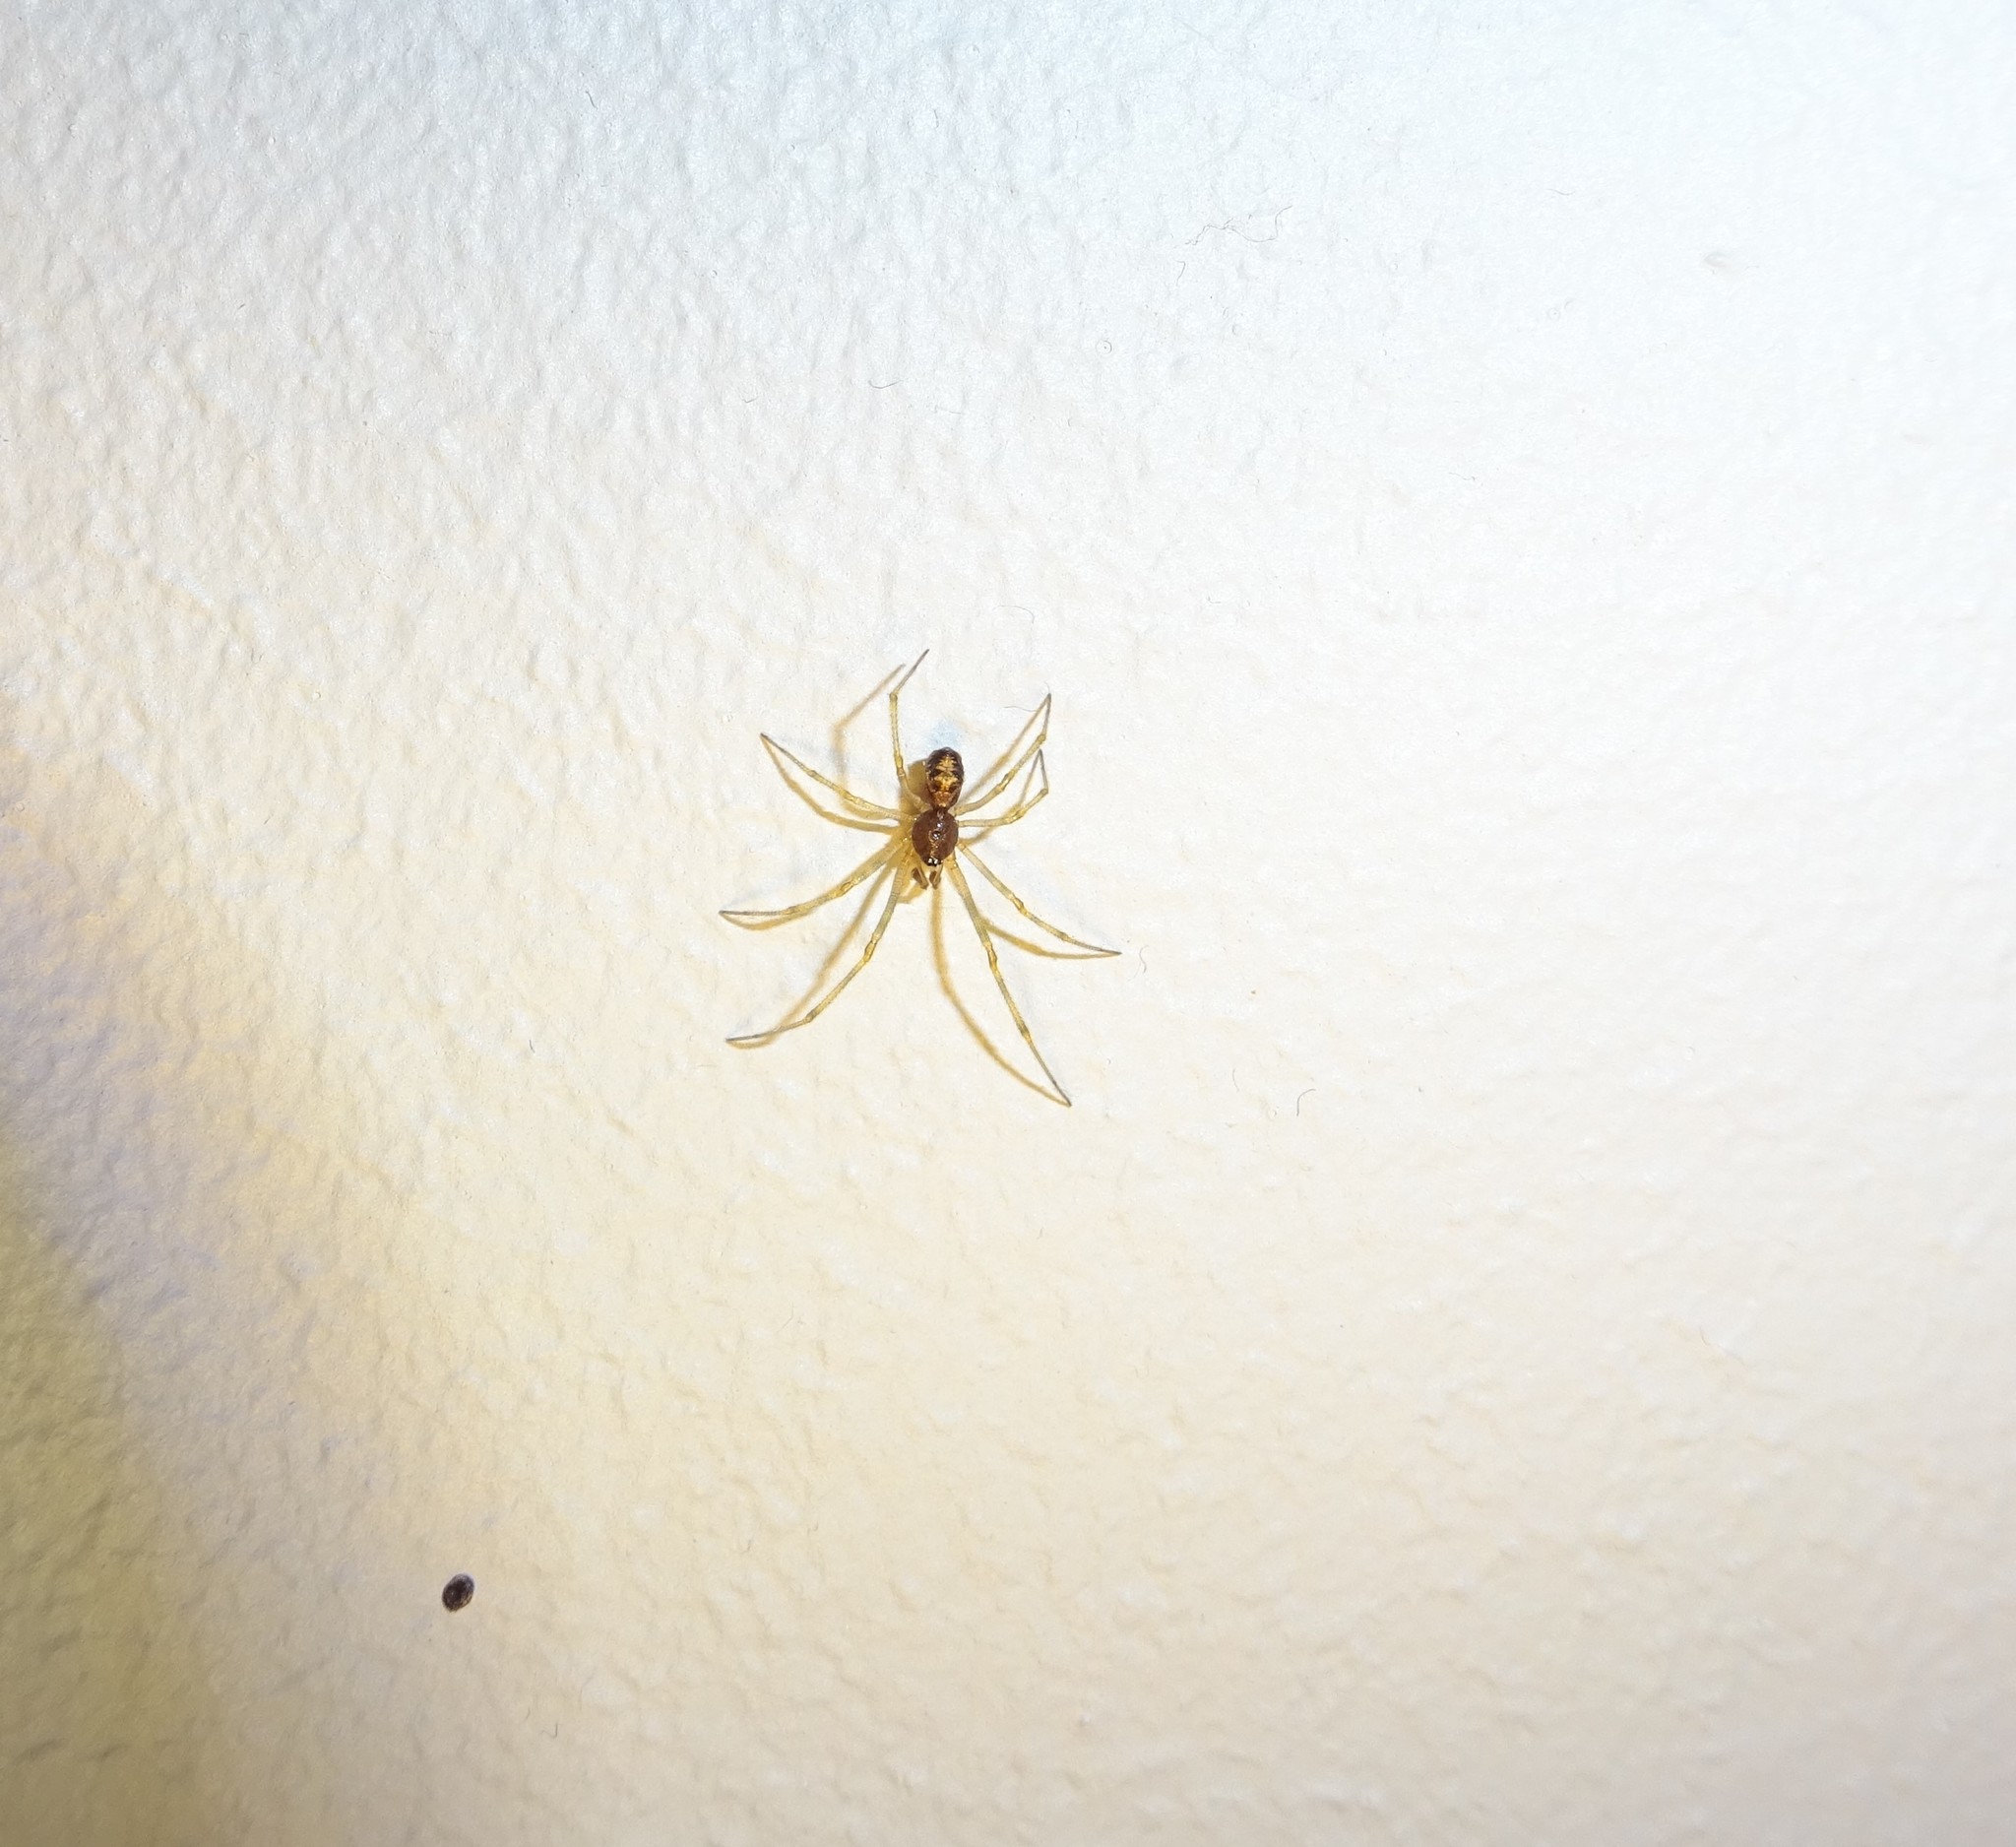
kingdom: Animalia
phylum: Arthropoda
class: Arachnida
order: Araneae
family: Theridiidae
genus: Steatoda
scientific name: Steatoda triangulosa
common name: Triangulate bud spider
